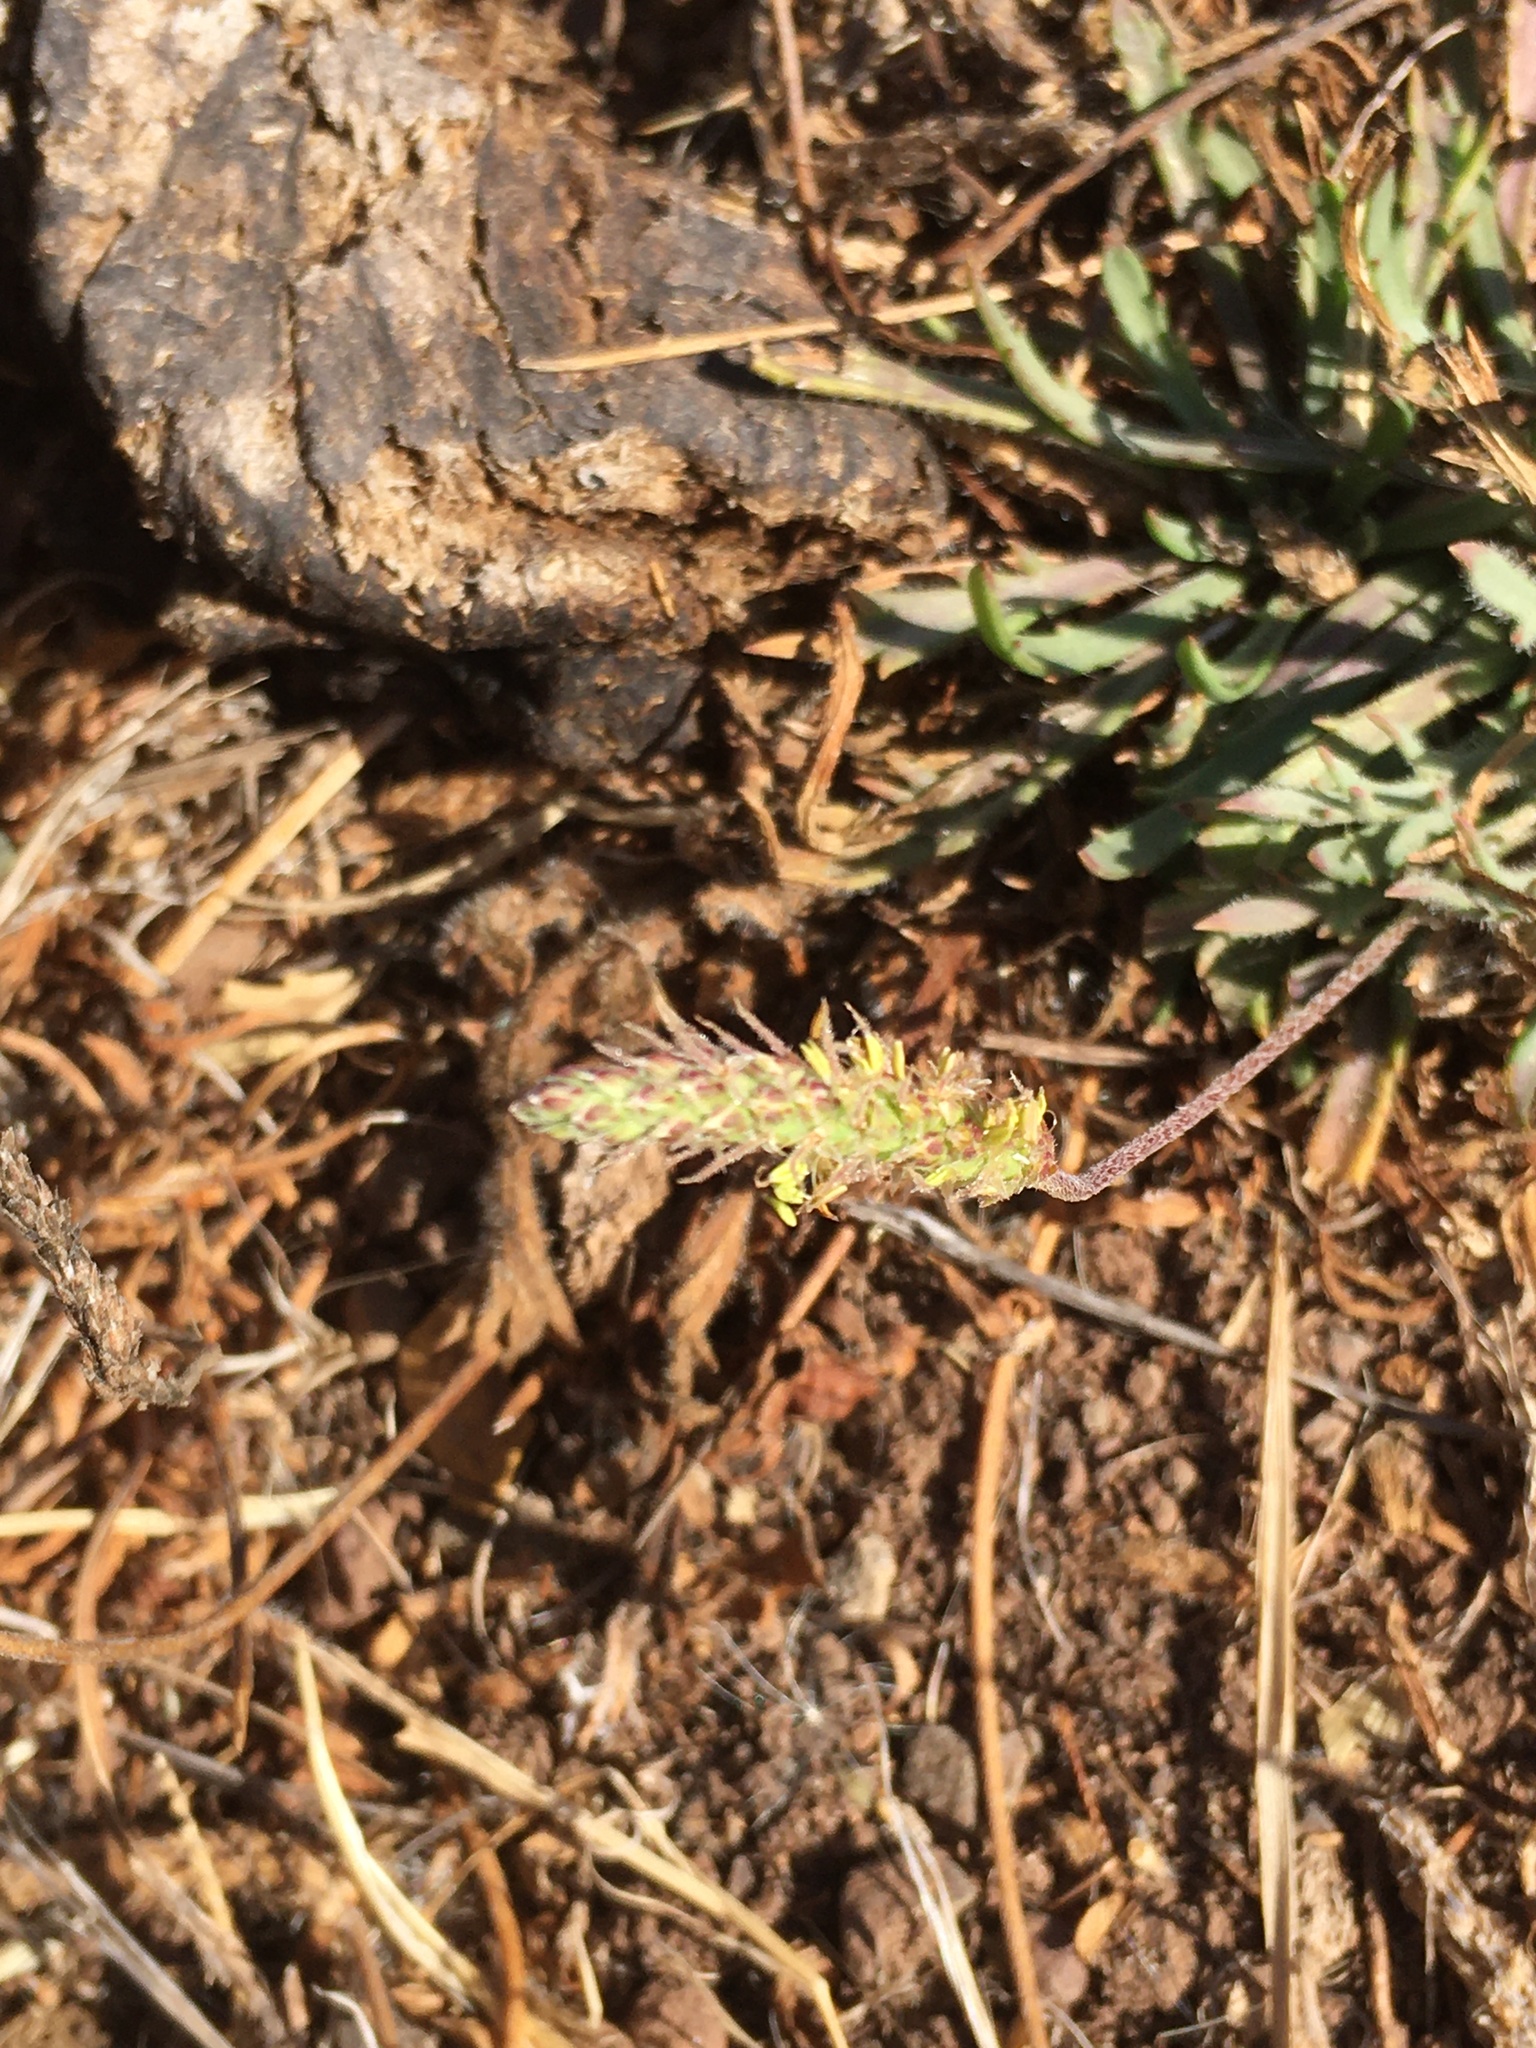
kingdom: Plantae
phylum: Tracheophyta
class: Magnoliopsida
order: Lamiales
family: Plantaginaceae
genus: Plantago
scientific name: Plantago coronopus
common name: Buck's-horn plantain
